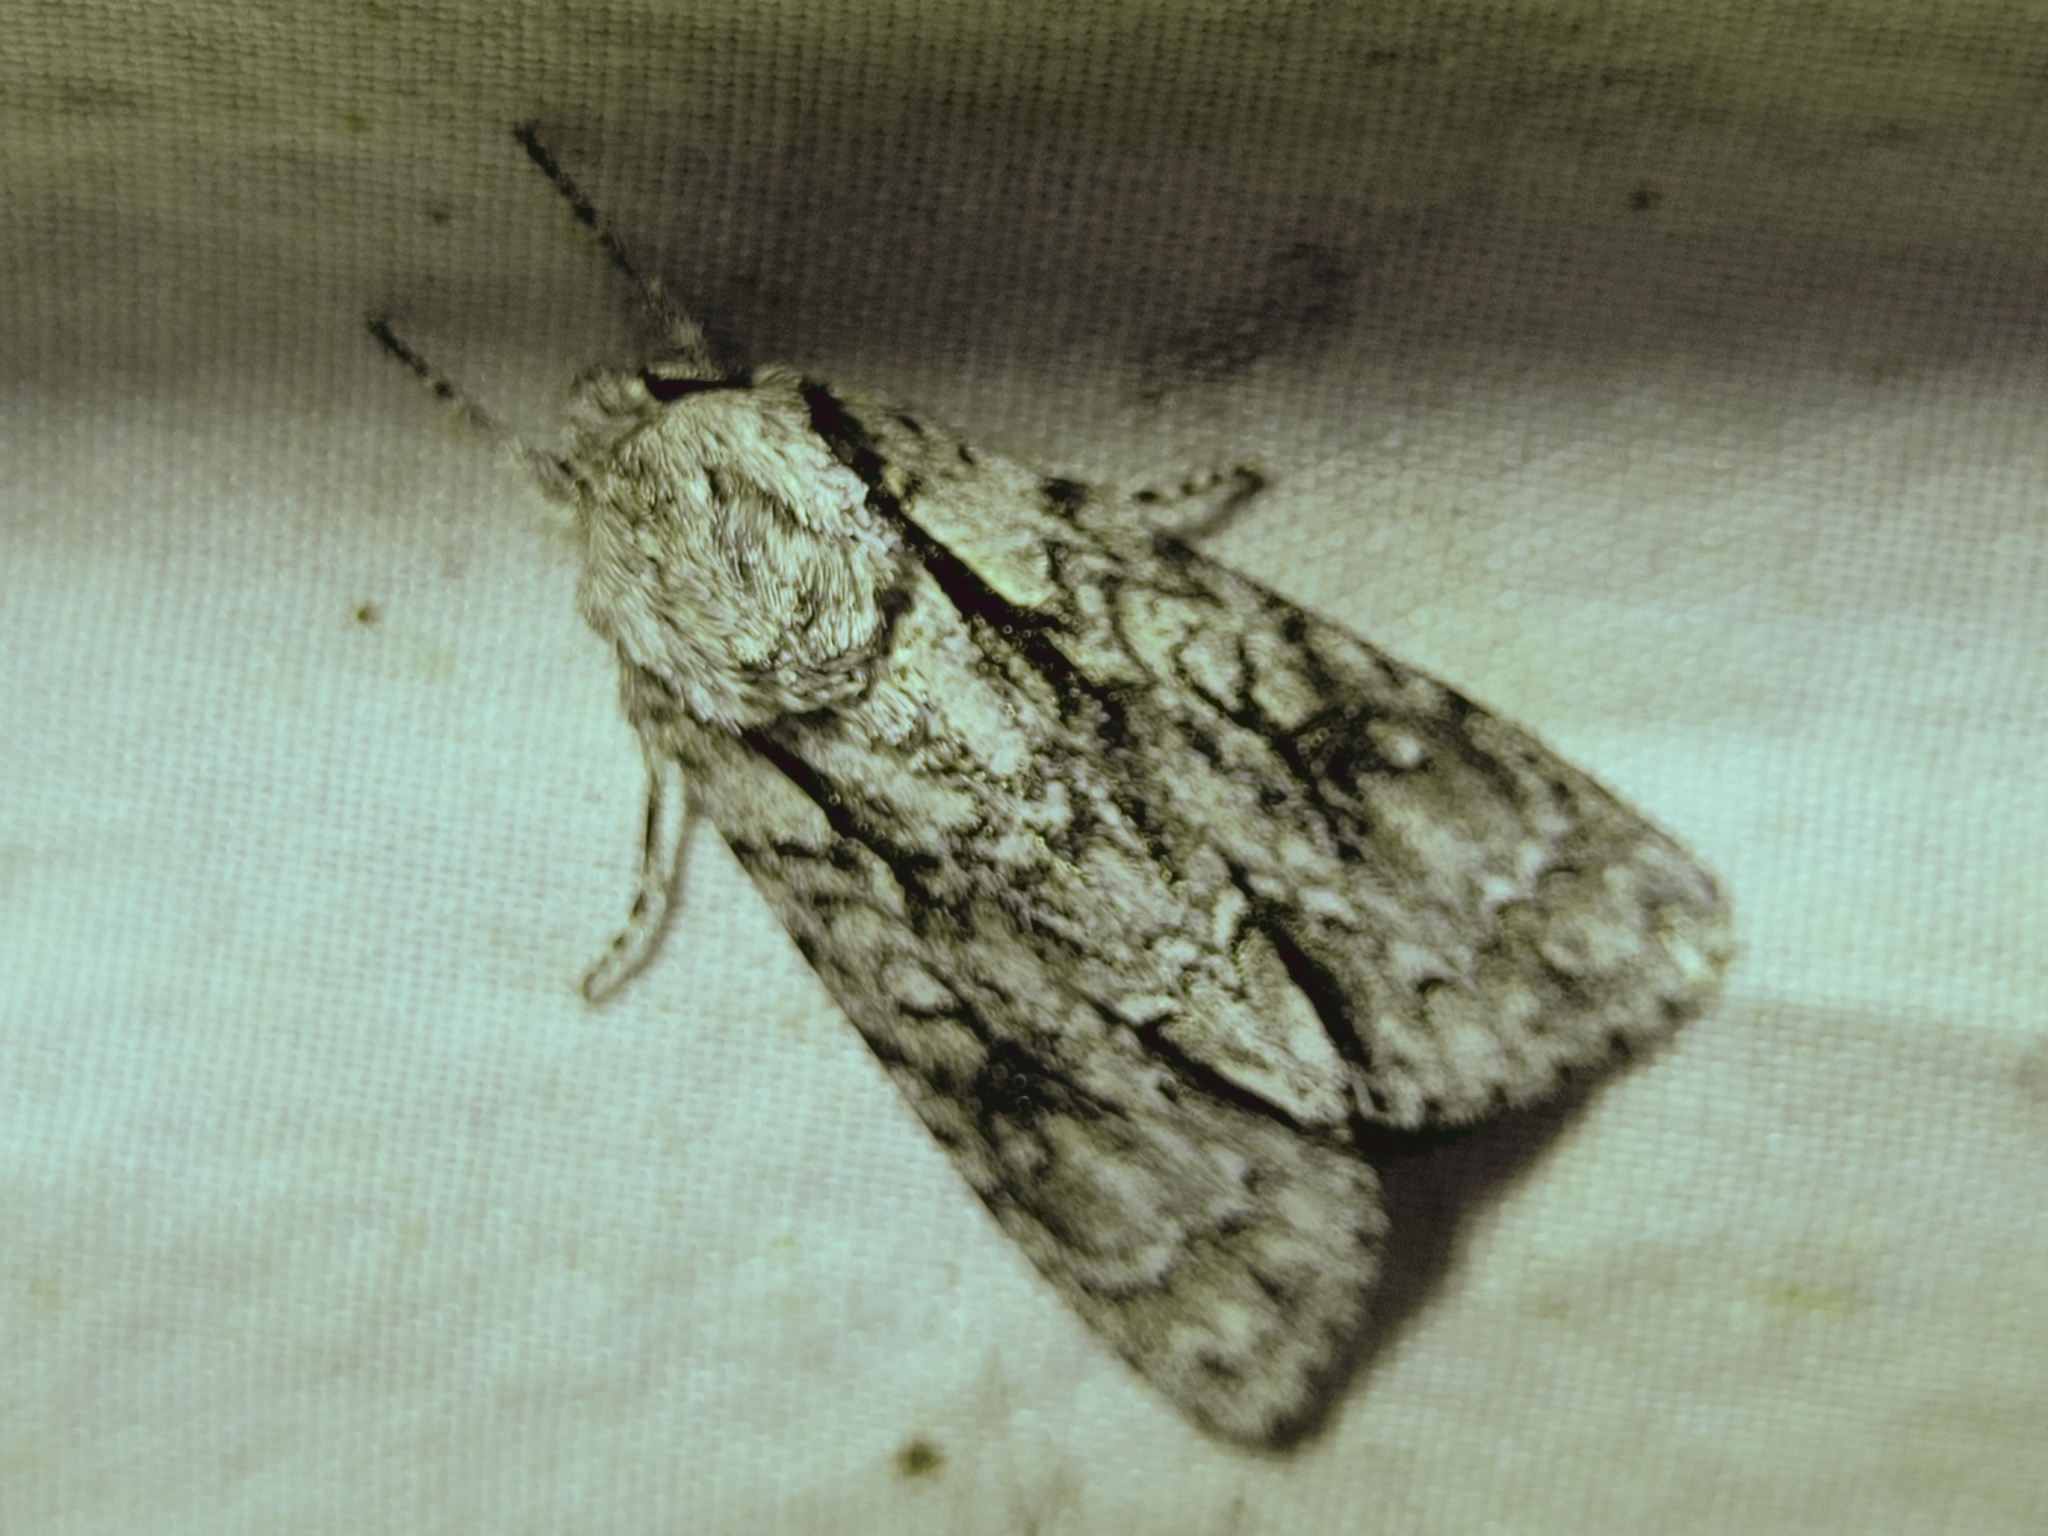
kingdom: Animalia
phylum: Arthropoda
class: Insecta
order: Lepidoptera
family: Noctuidae
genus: Acronicta
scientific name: Acronicta hasta
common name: Cherry dagger
